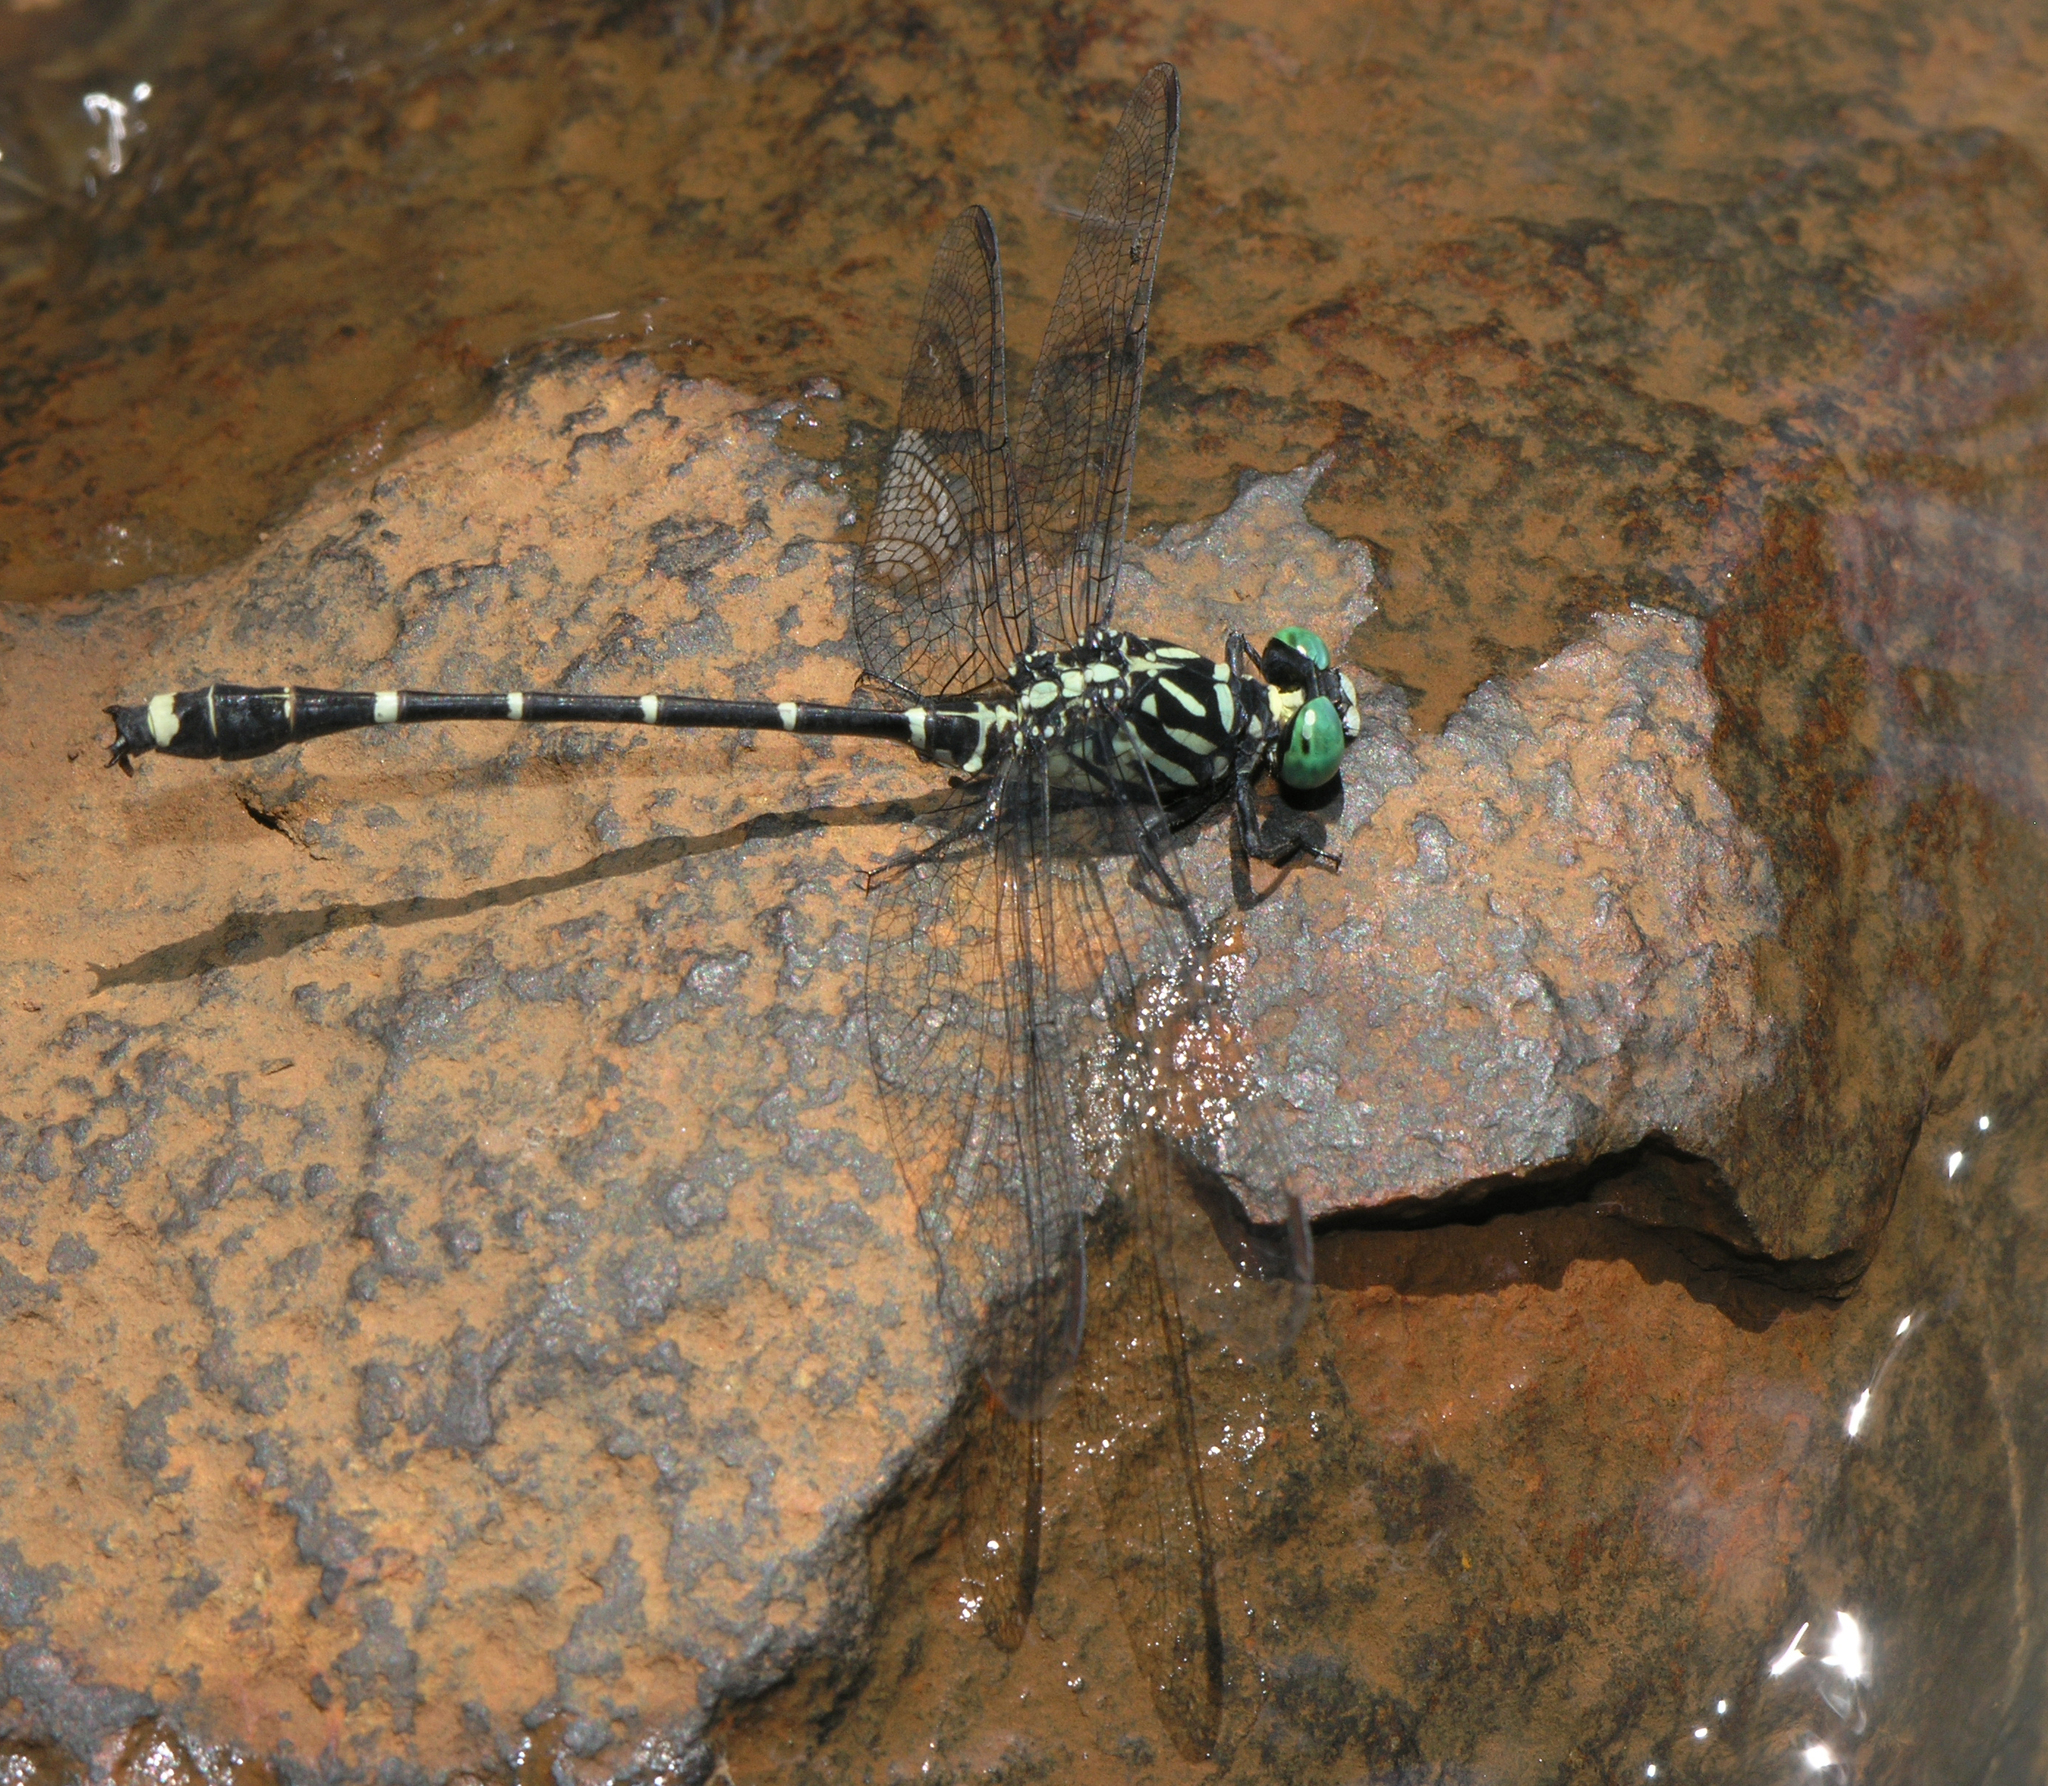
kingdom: Animalia
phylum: Arthropoda
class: Insecta
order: Odonata
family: Gomphidae
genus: Burmagomphus
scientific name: Burmagomphus asahinai
